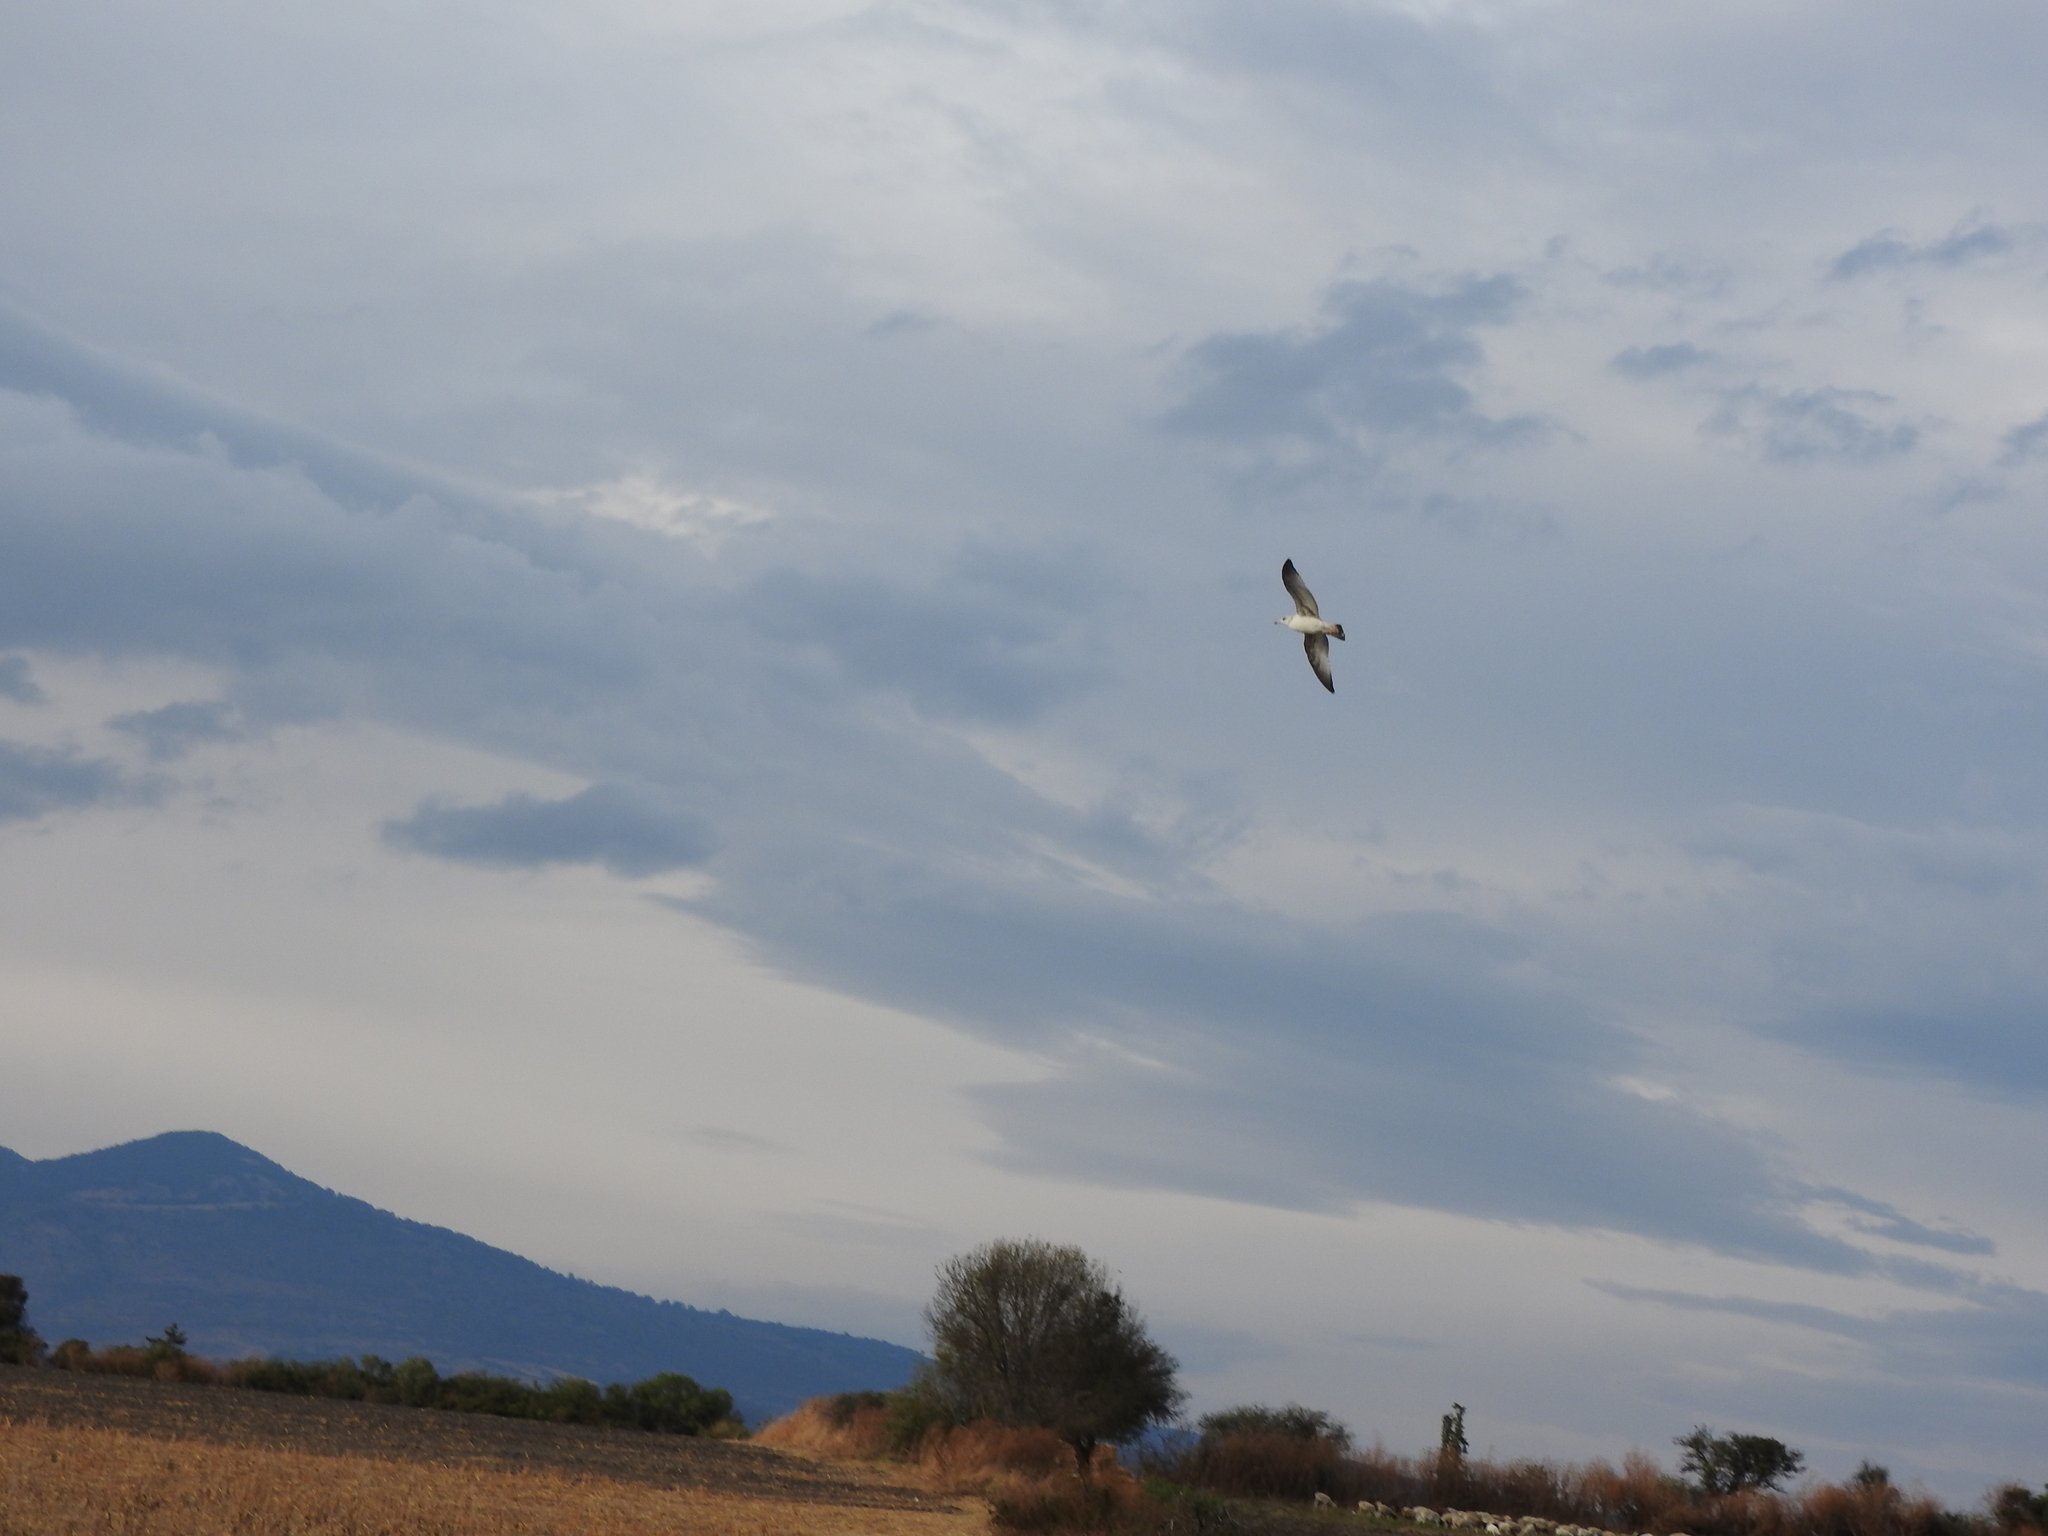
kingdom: Animalia
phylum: Chordata
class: Aves
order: Charadriiformes
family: Laridae
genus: Larus
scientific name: Larus delawarensis
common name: Ring-billed gull
